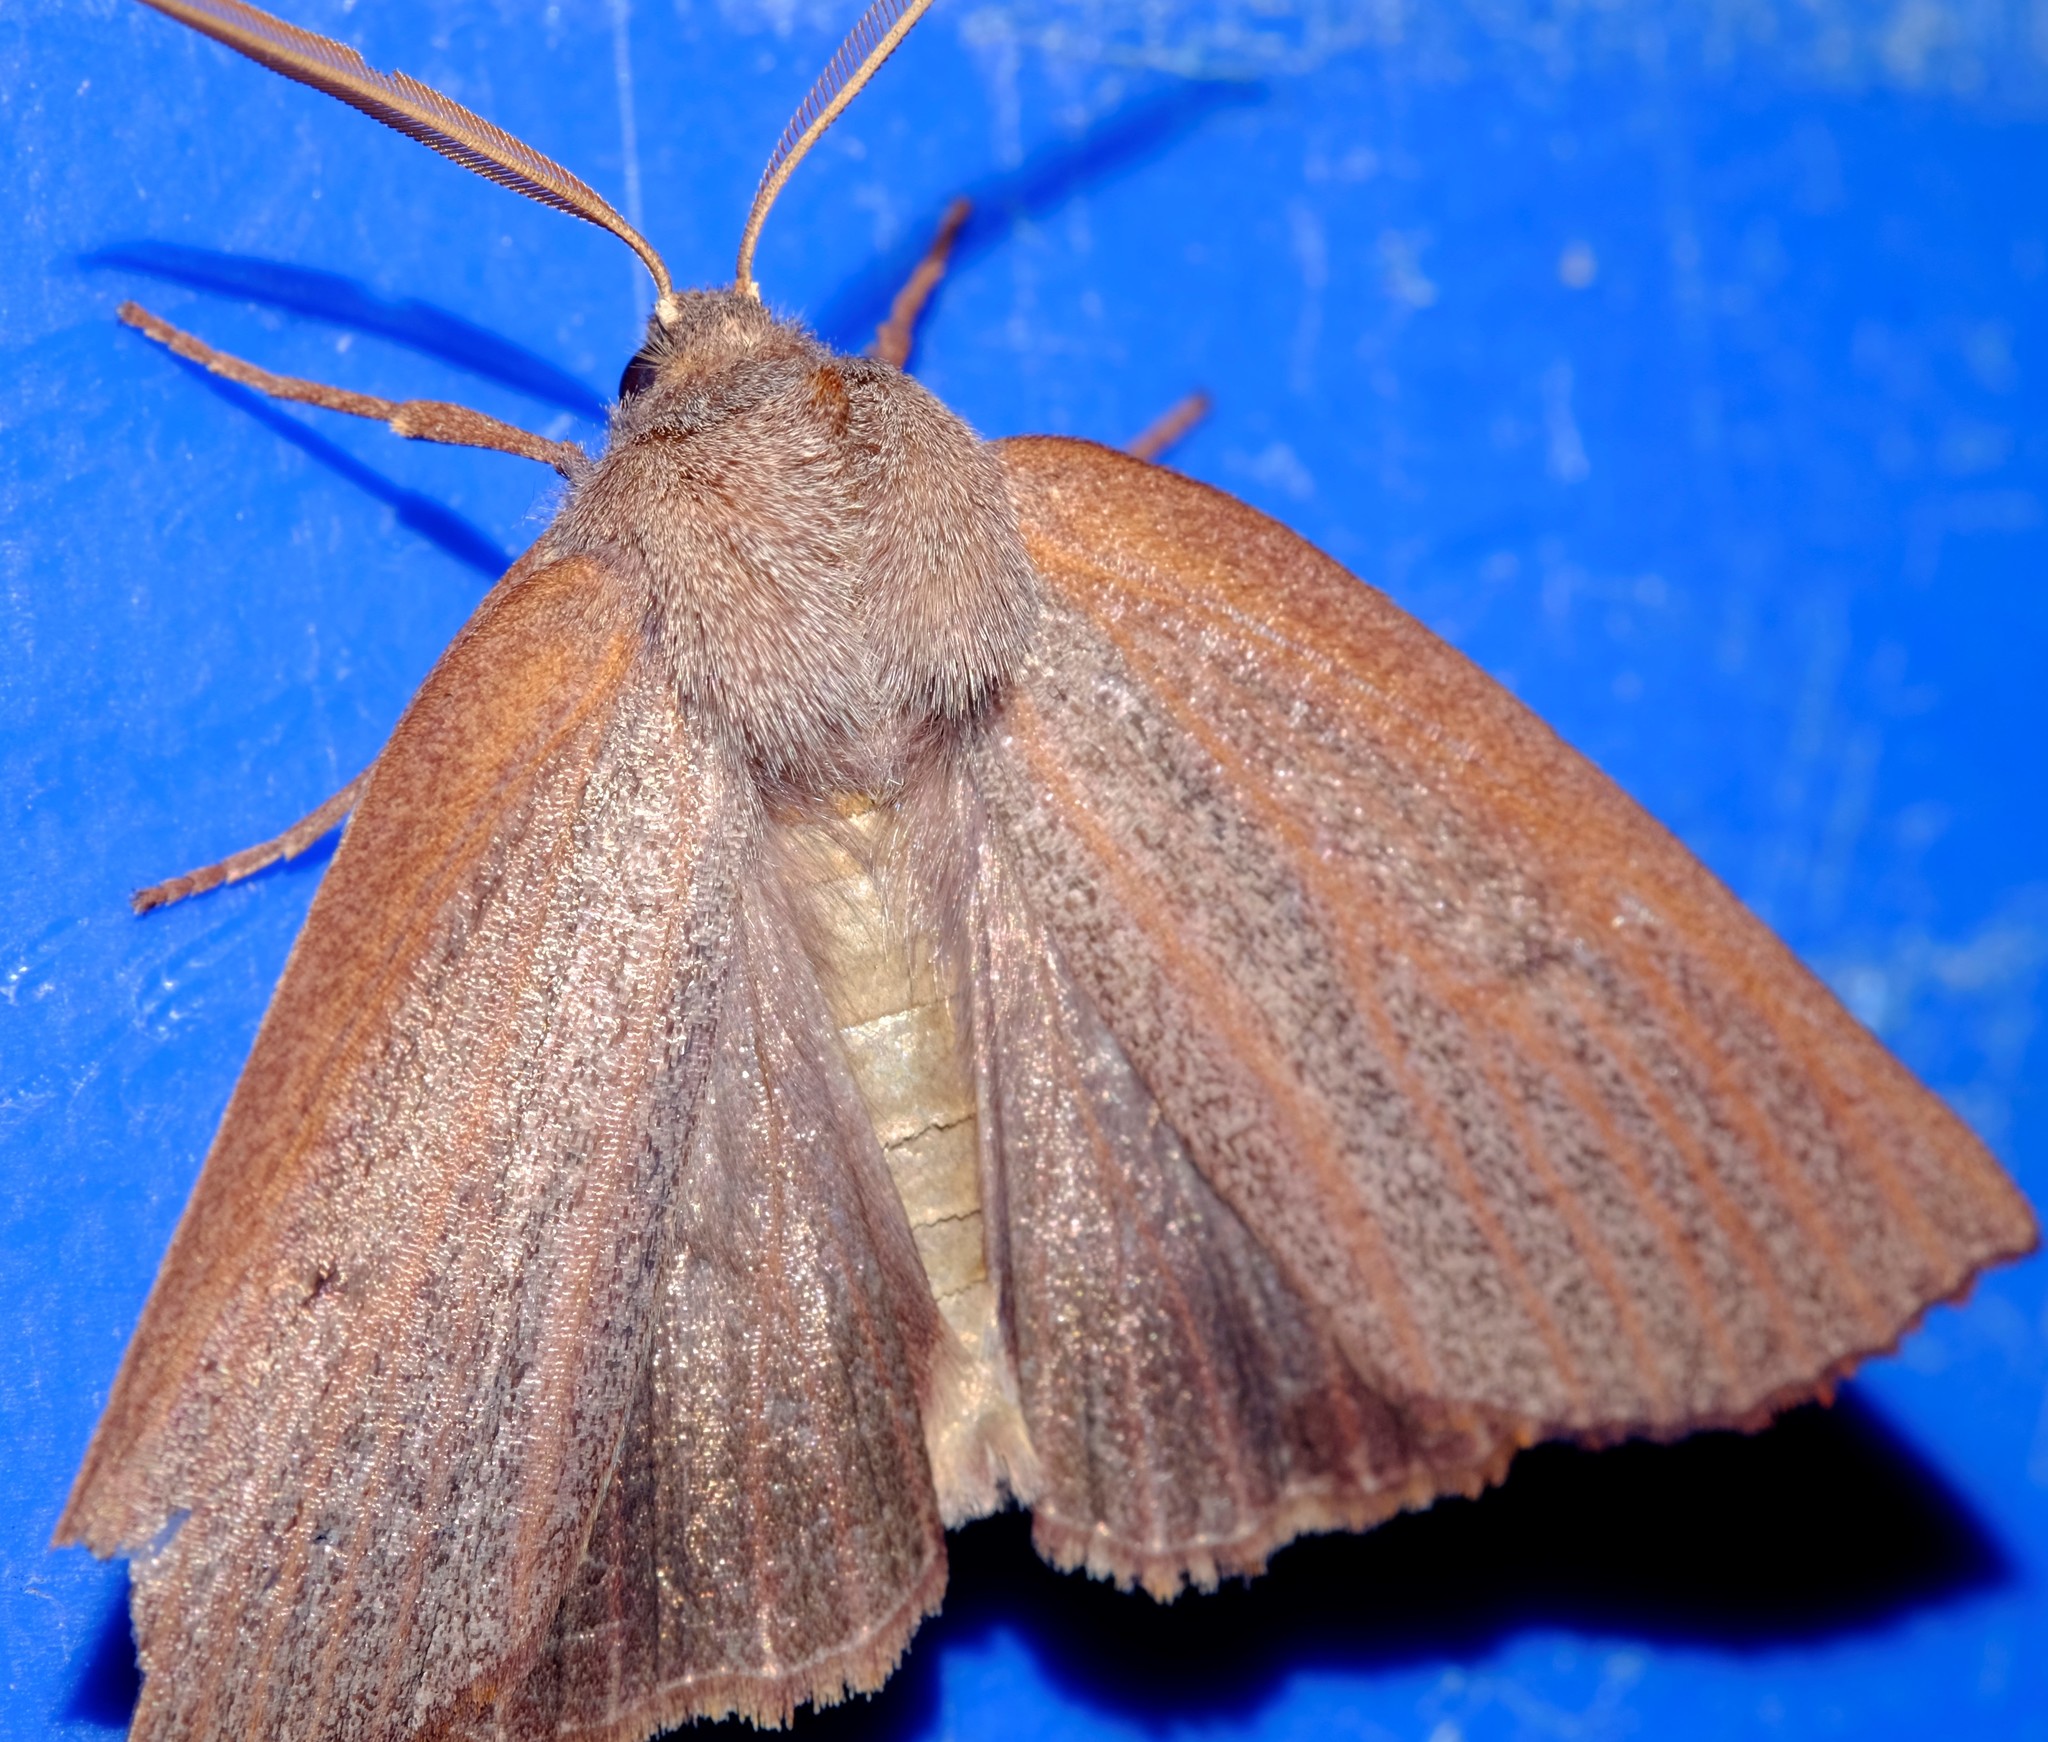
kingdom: Animalia
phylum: Arthropoda
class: Insecta
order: Lepidoptera
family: Geometridae
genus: Paralaea
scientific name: Paralaea porphyrinaria
